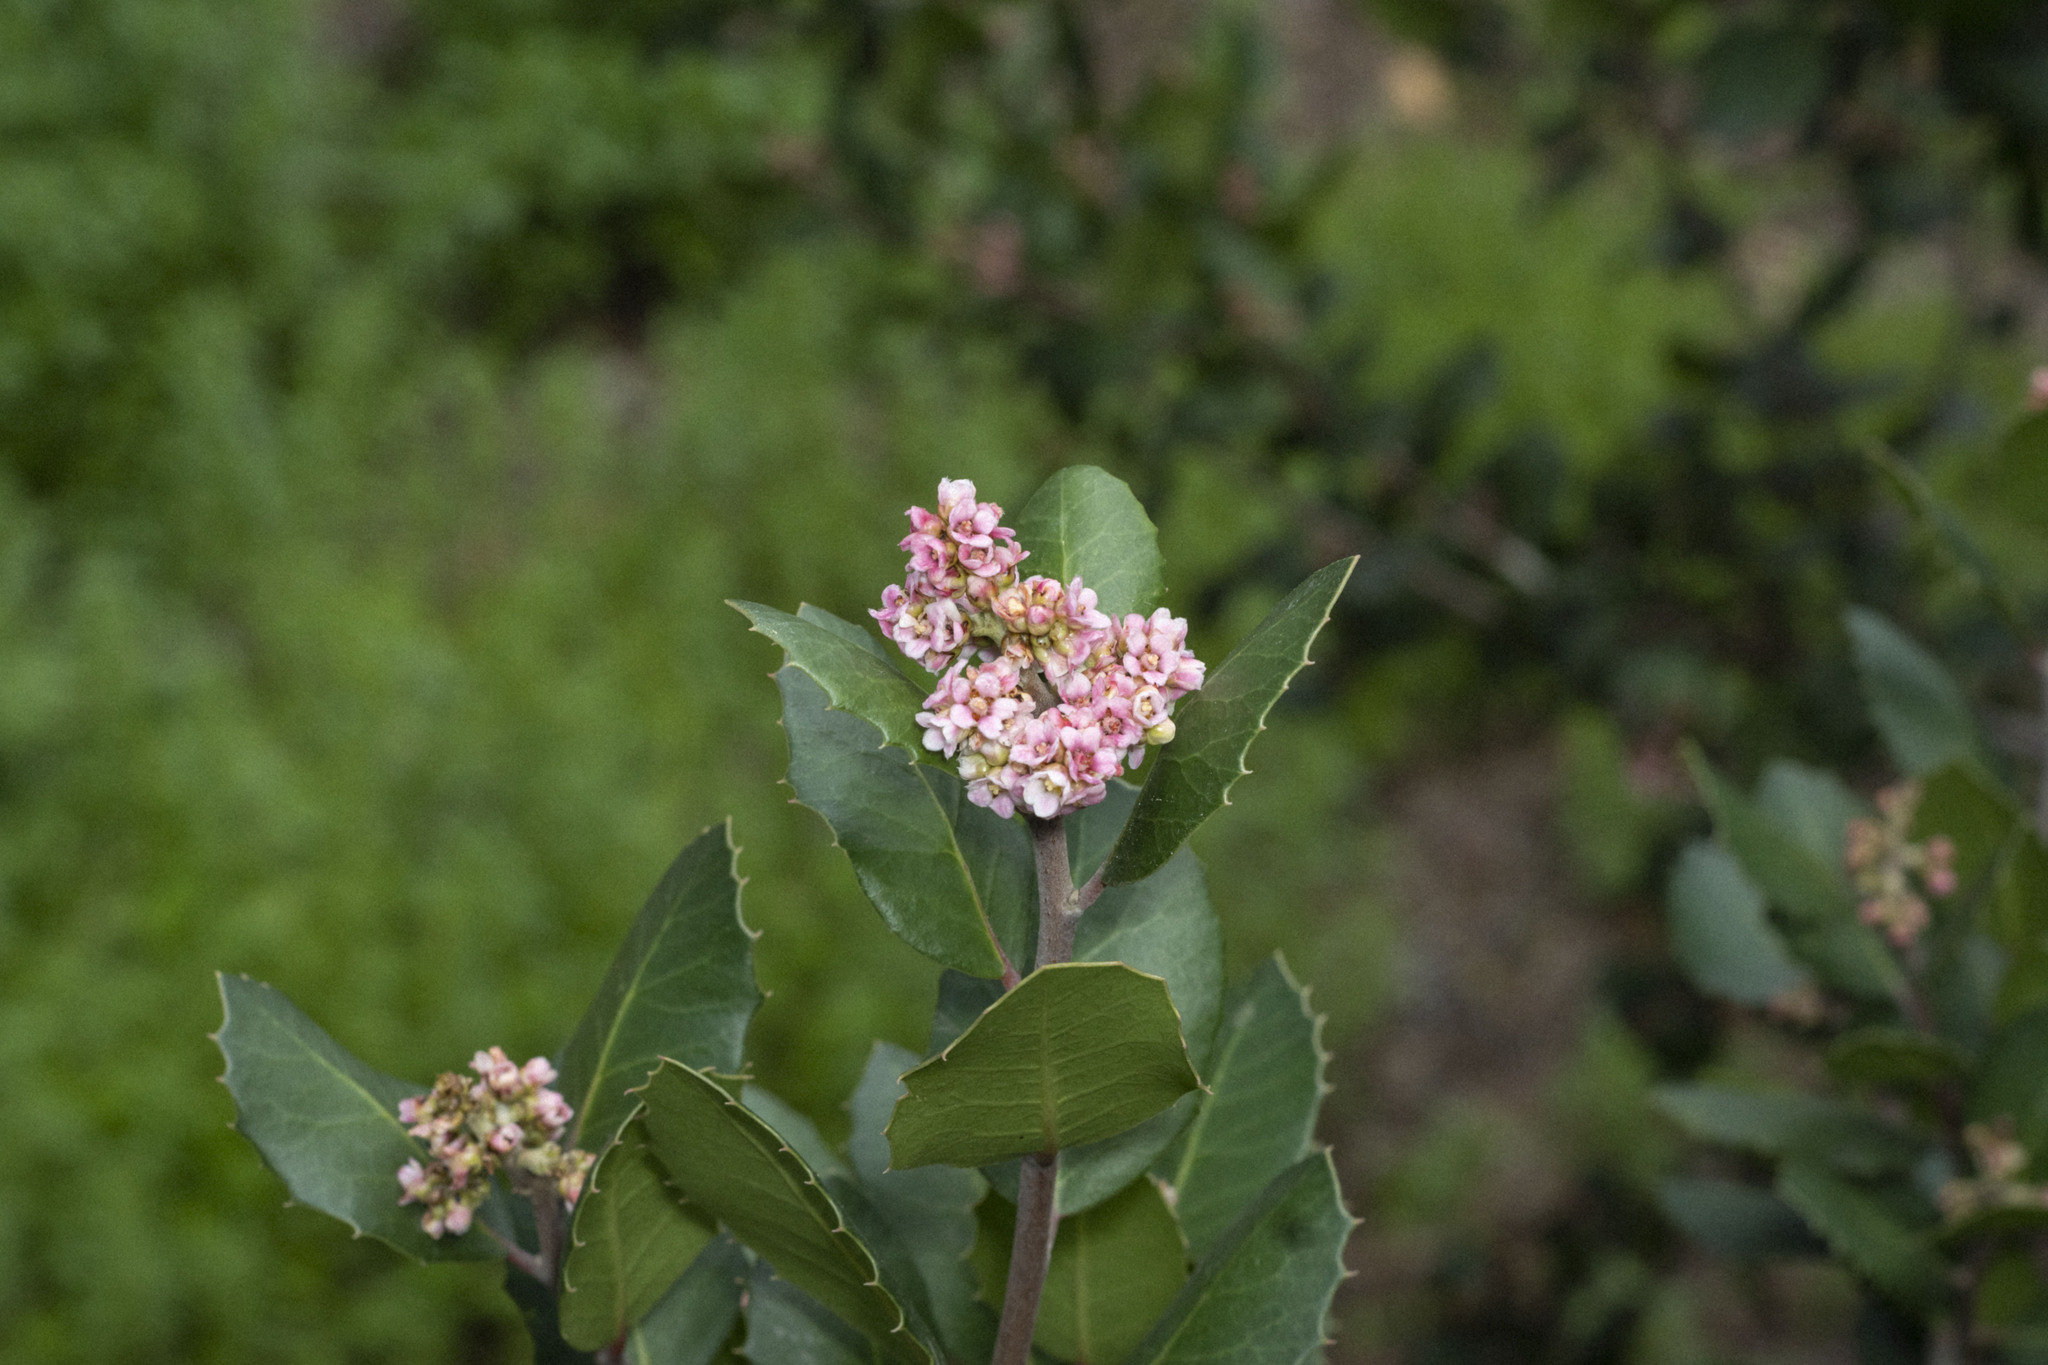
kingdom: Plantae
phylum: Tracheophyta
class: Magnoliopsida
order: Sapindales
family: Anacardiaceae
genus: Rhus
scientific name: Rhus integrifolia
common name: Lemonade sumac
